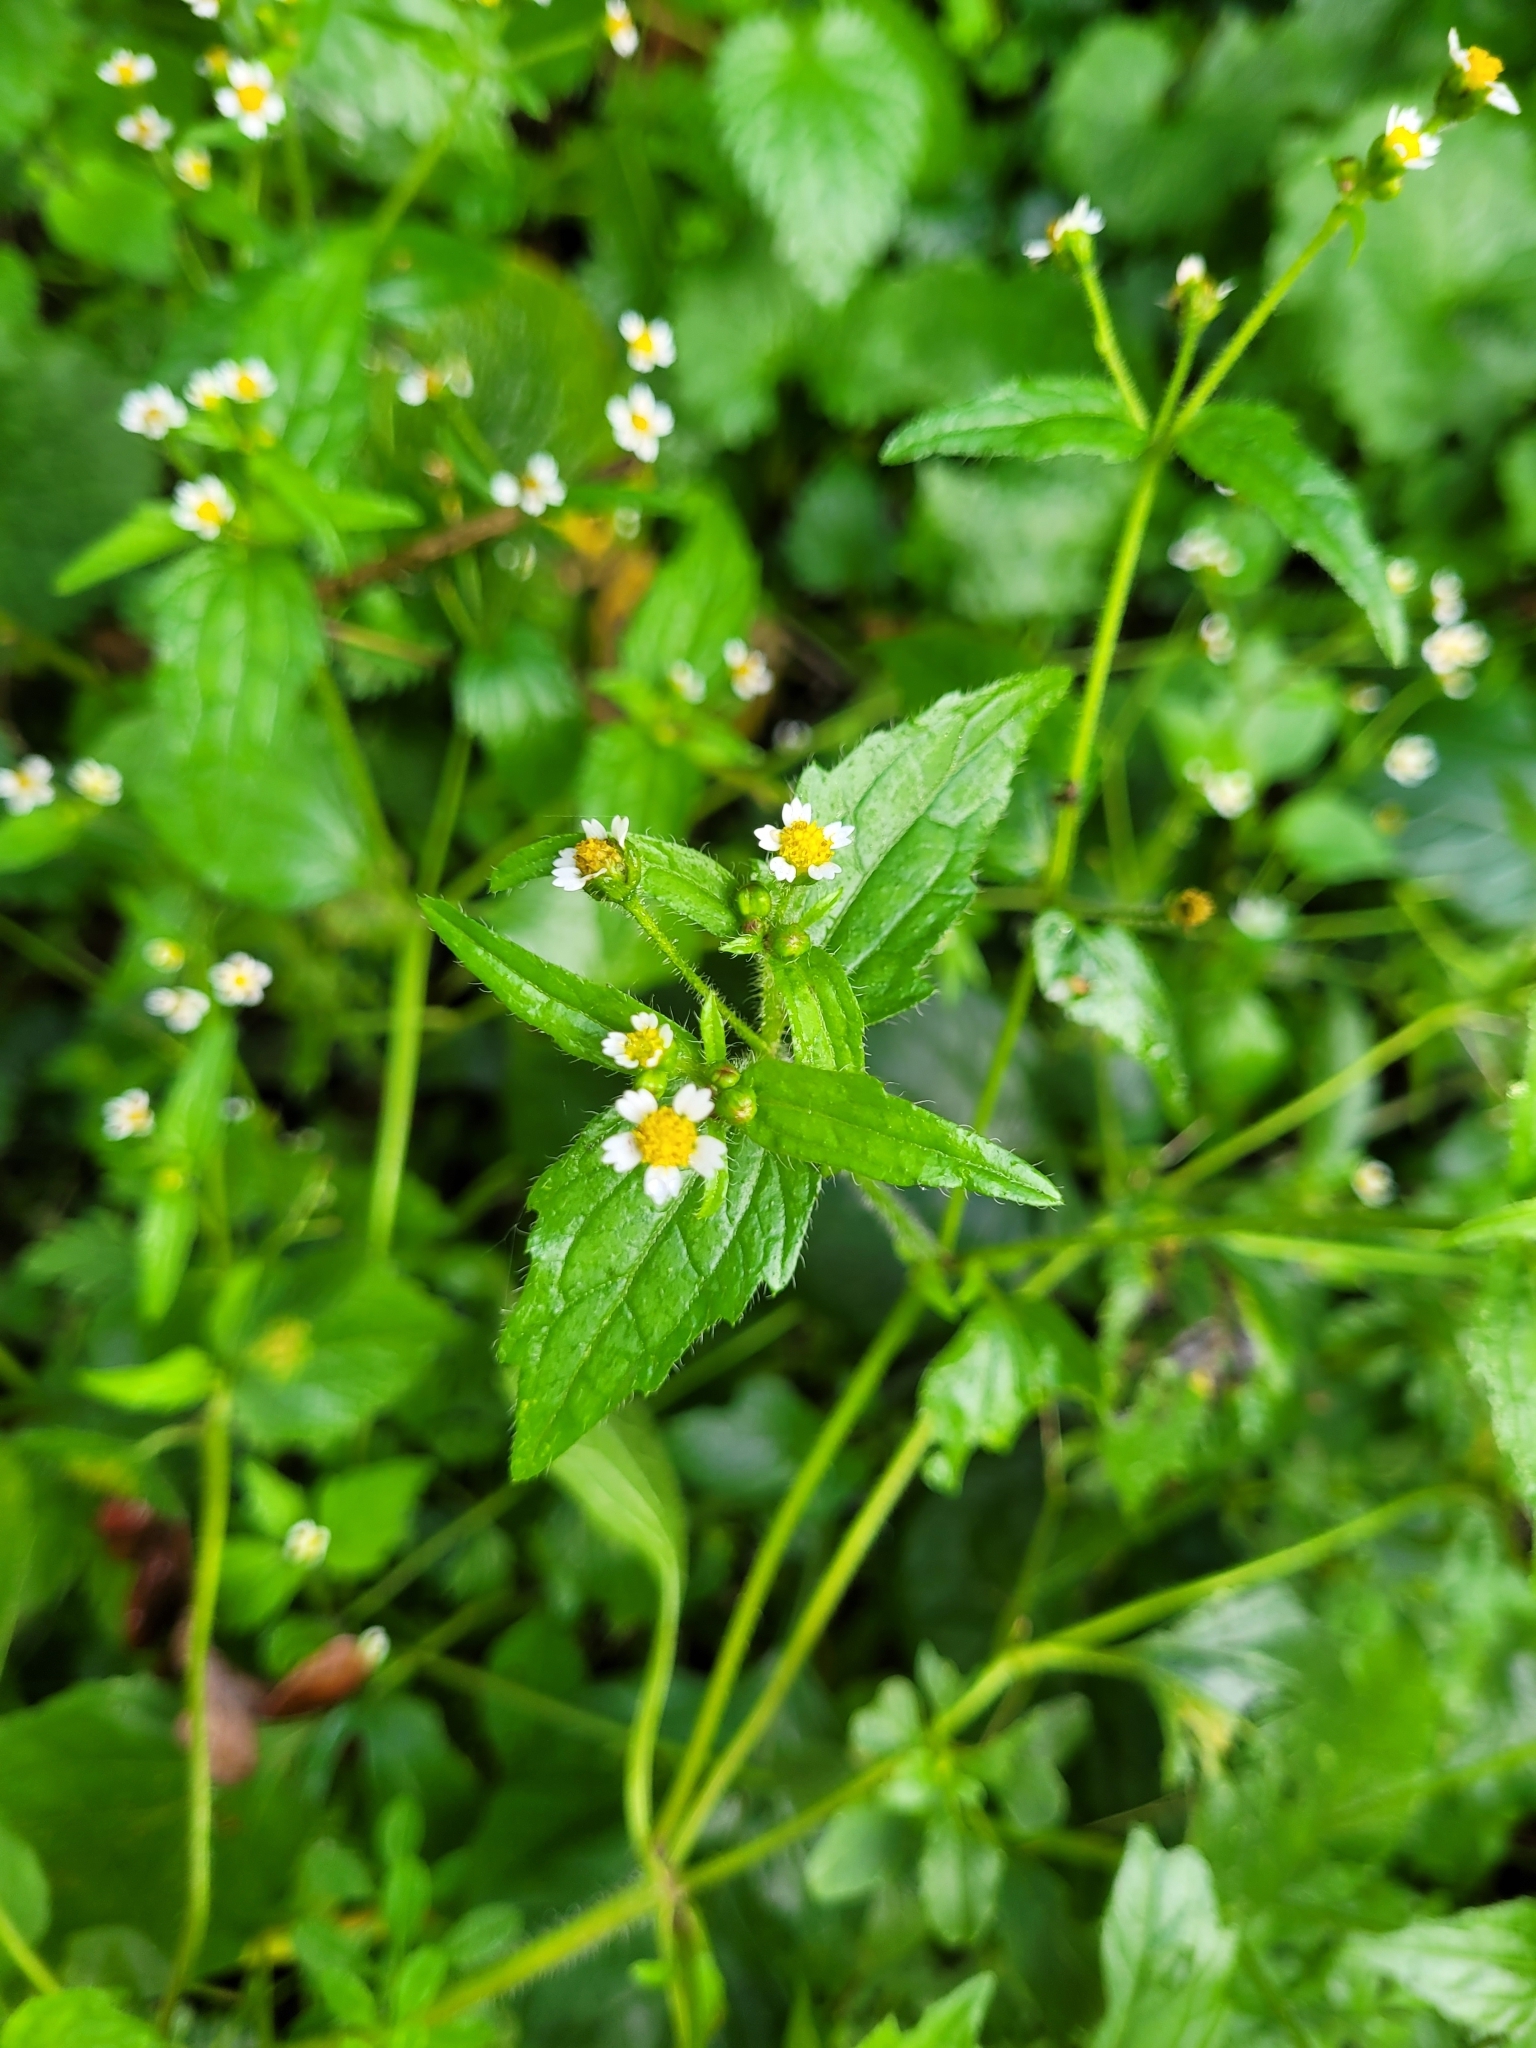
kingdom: Plantae
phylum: Tracheophyta
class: Magnoliopsida
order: Asterales
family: Asteraceae
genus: Galinsoga
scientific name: Galinsoga quadriradiata
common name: Shaggy soldier
